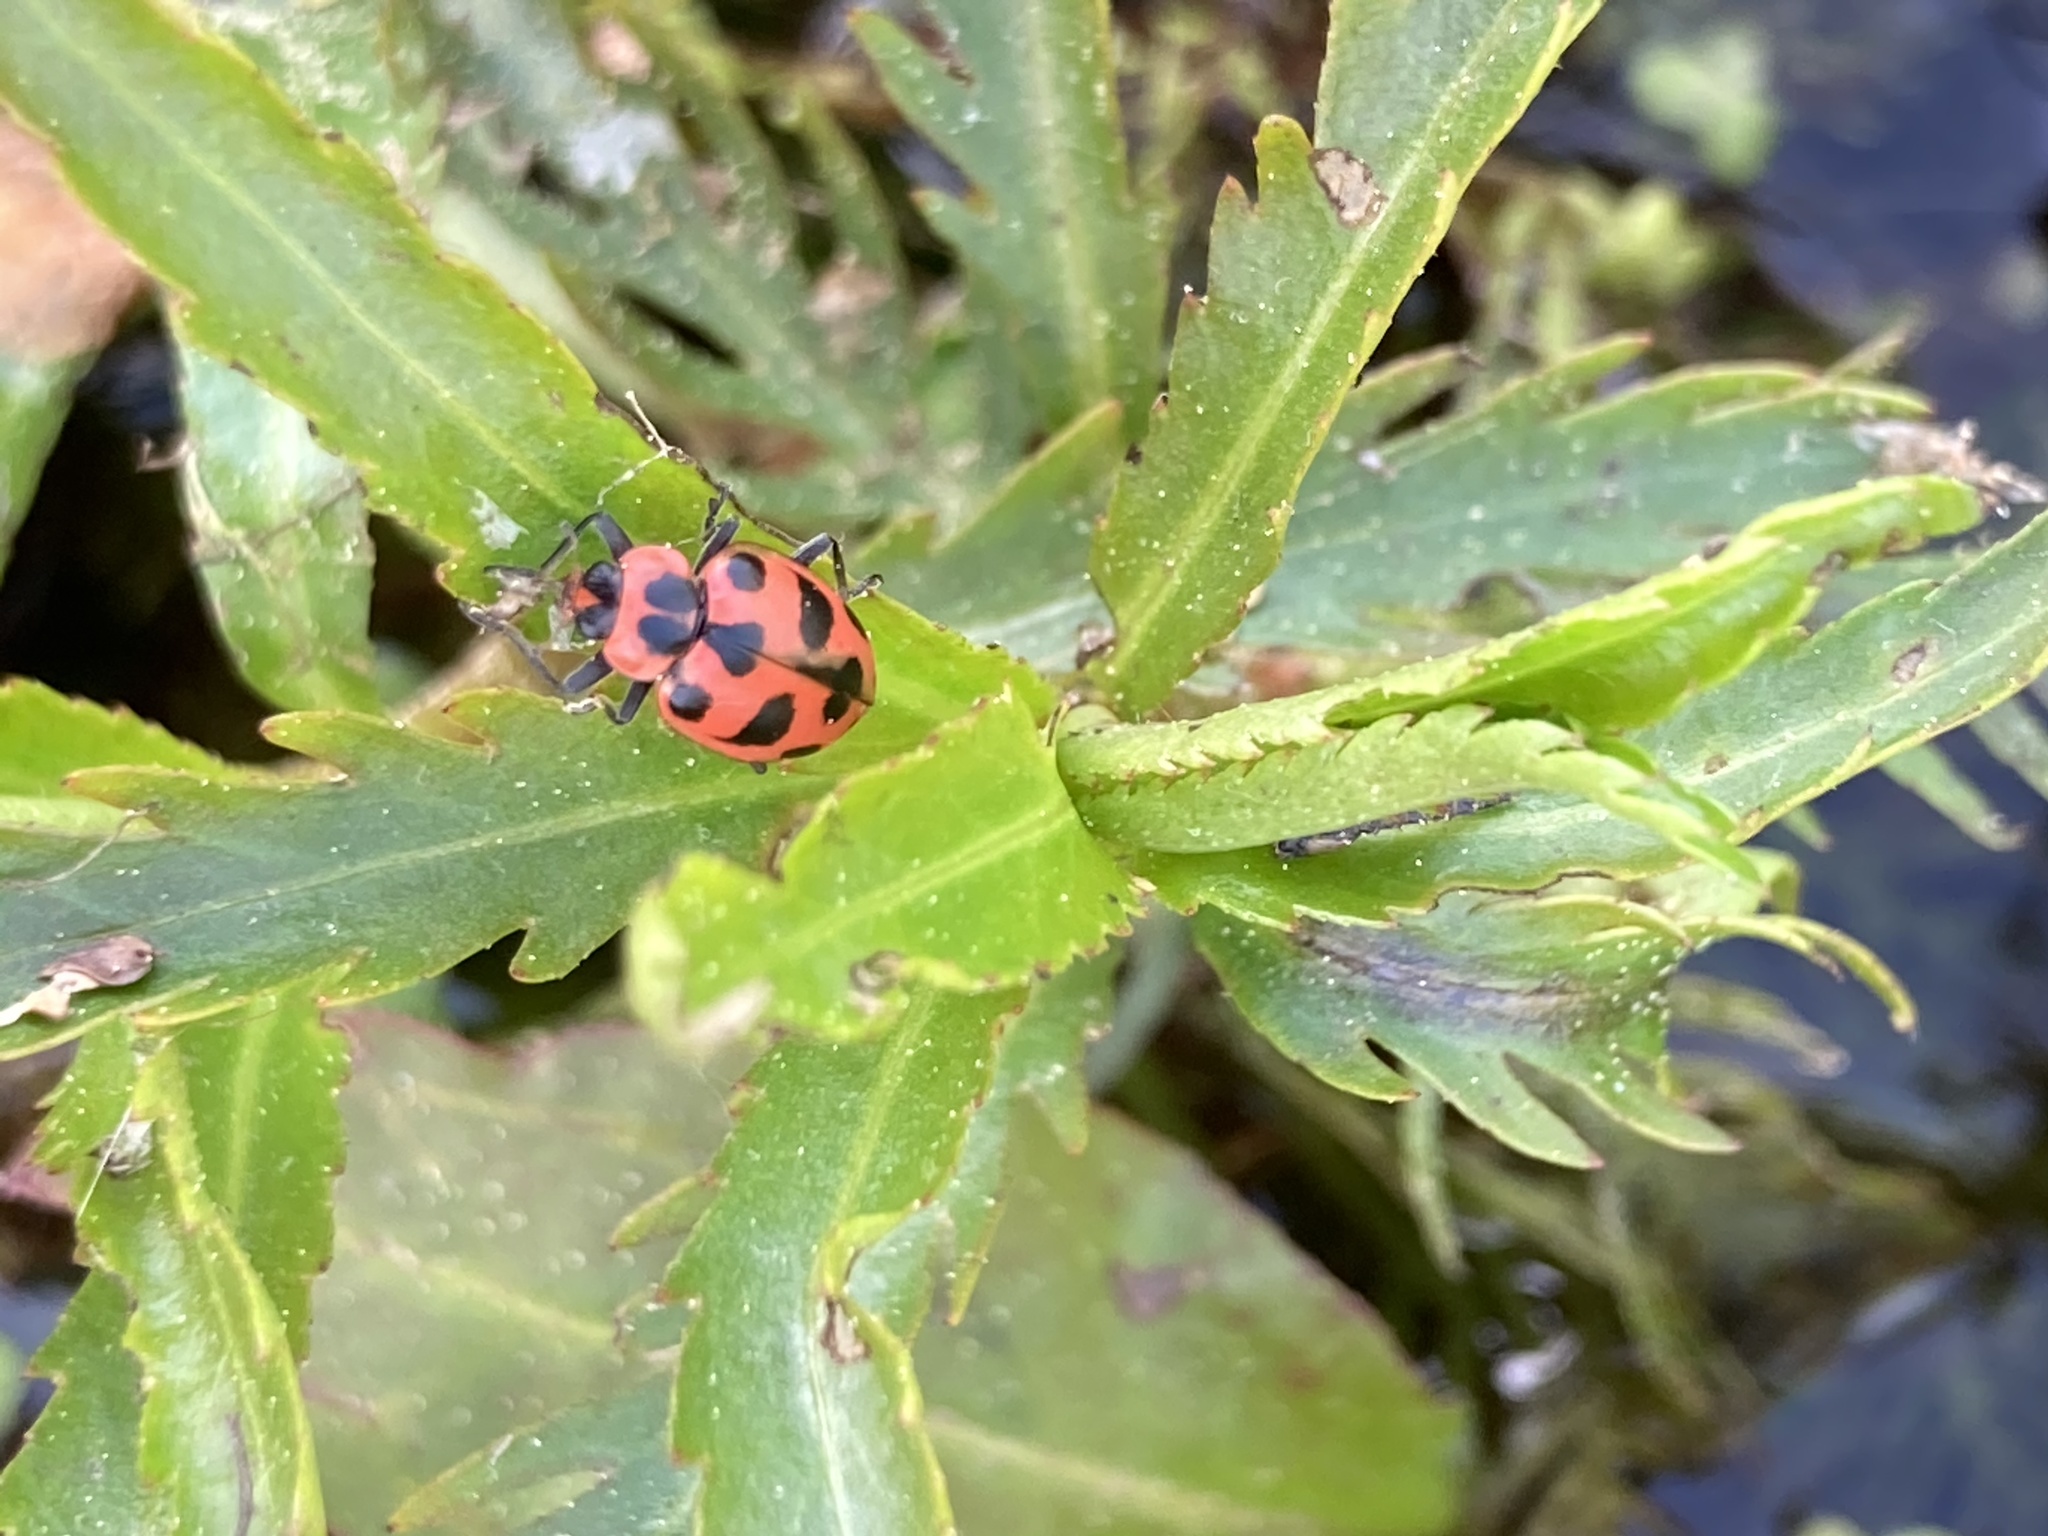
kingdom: Animalia
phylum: Arthropoda
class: Insecta
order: Coleoptera
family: Coccinellidae
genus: Coleomegilla
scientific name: Coleomegilla maculata
